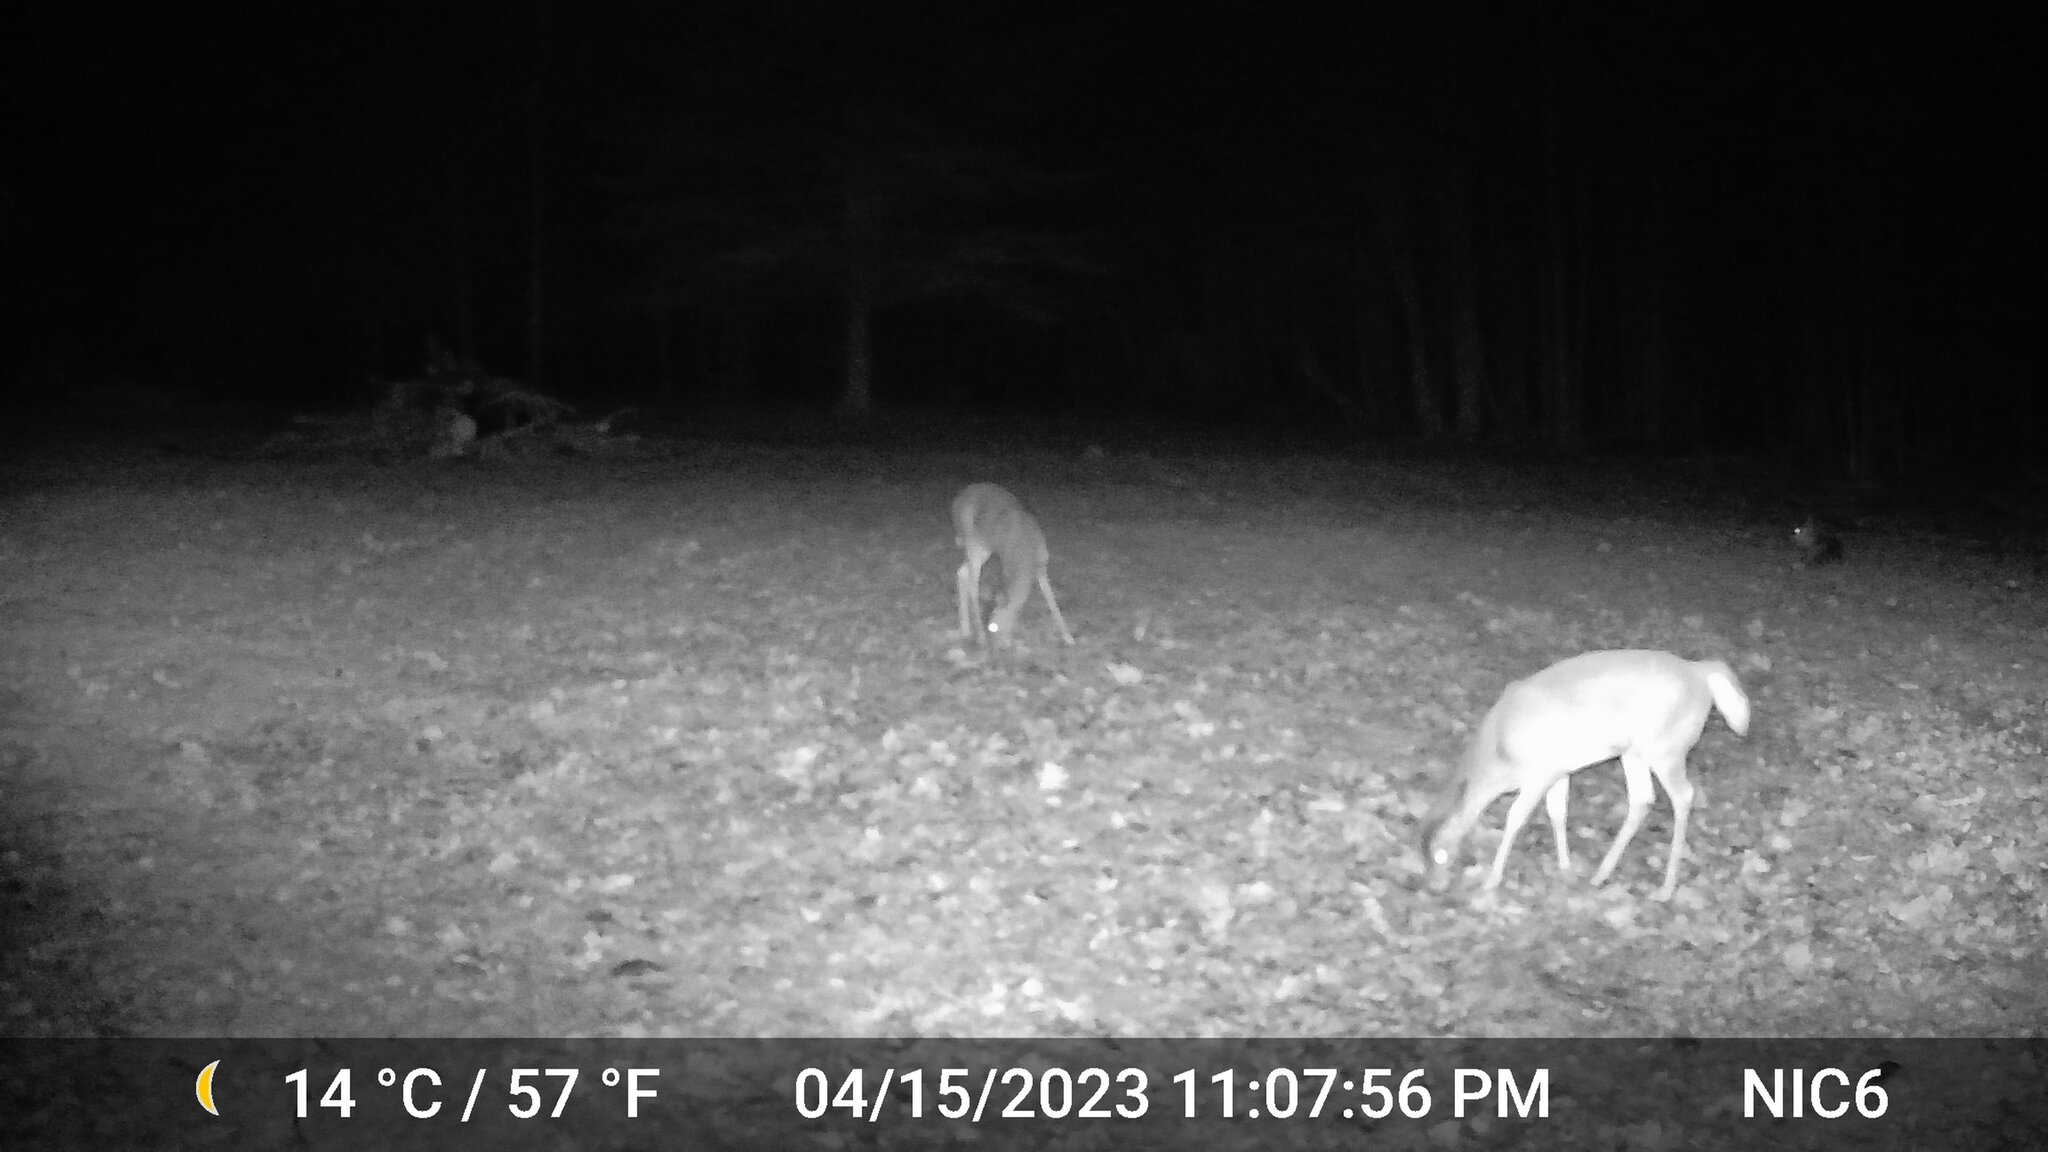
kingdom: Animalia
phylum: Chordata
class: Mammalia
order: Artiodactyla
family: Cervidae
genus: Odocoileus
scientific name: Odocoileus virginianus
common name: White-tailed deer
